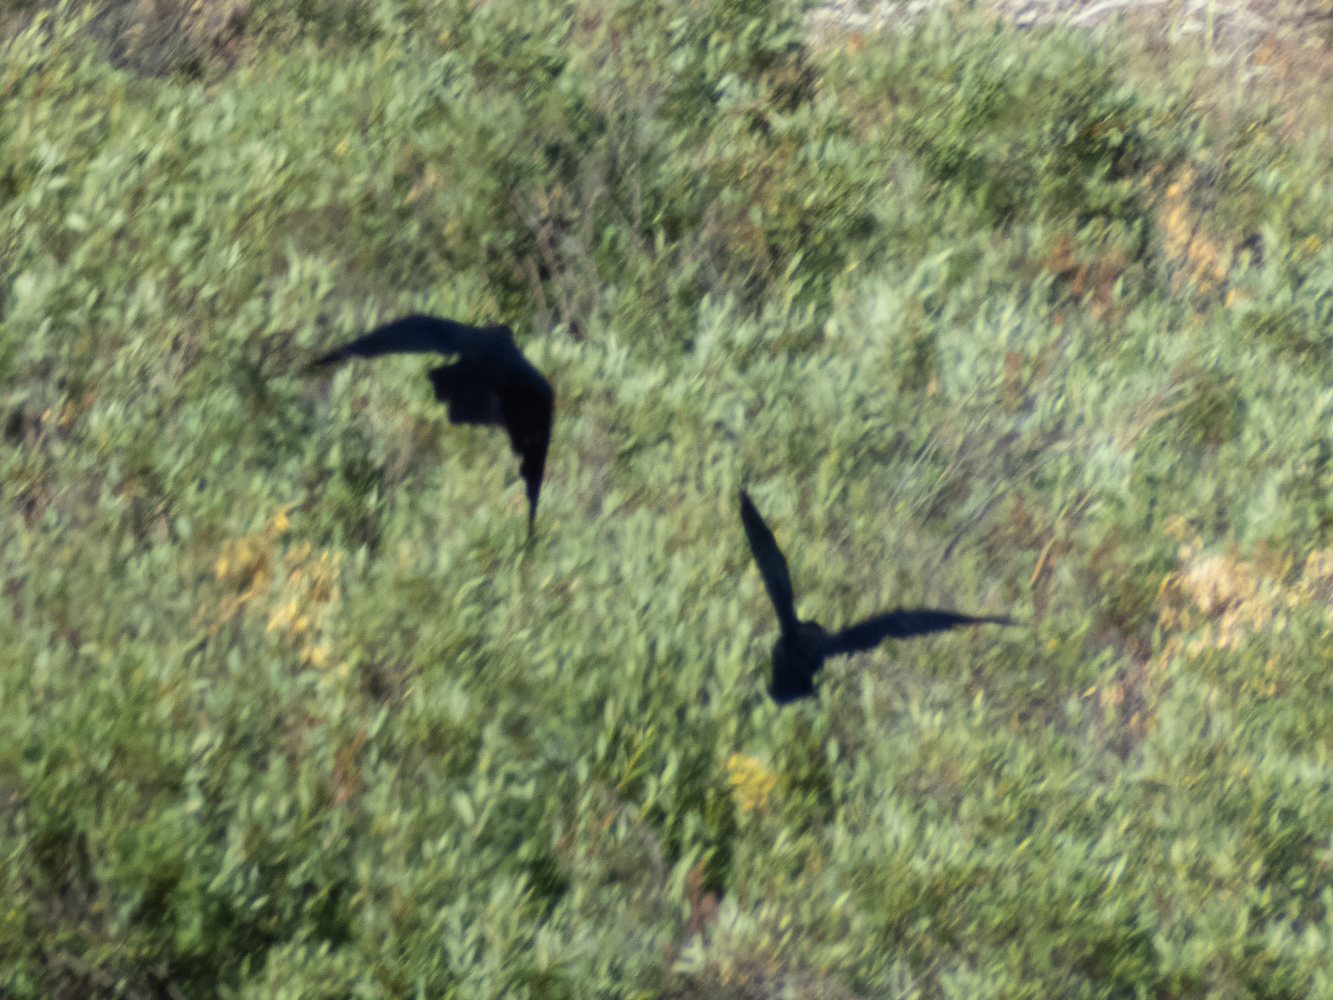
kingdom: Animalia
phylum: Chordata
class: Aves
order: Passeriformes
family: Corvidae
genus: Corvus
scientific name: Corvus corax
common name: Common raven
